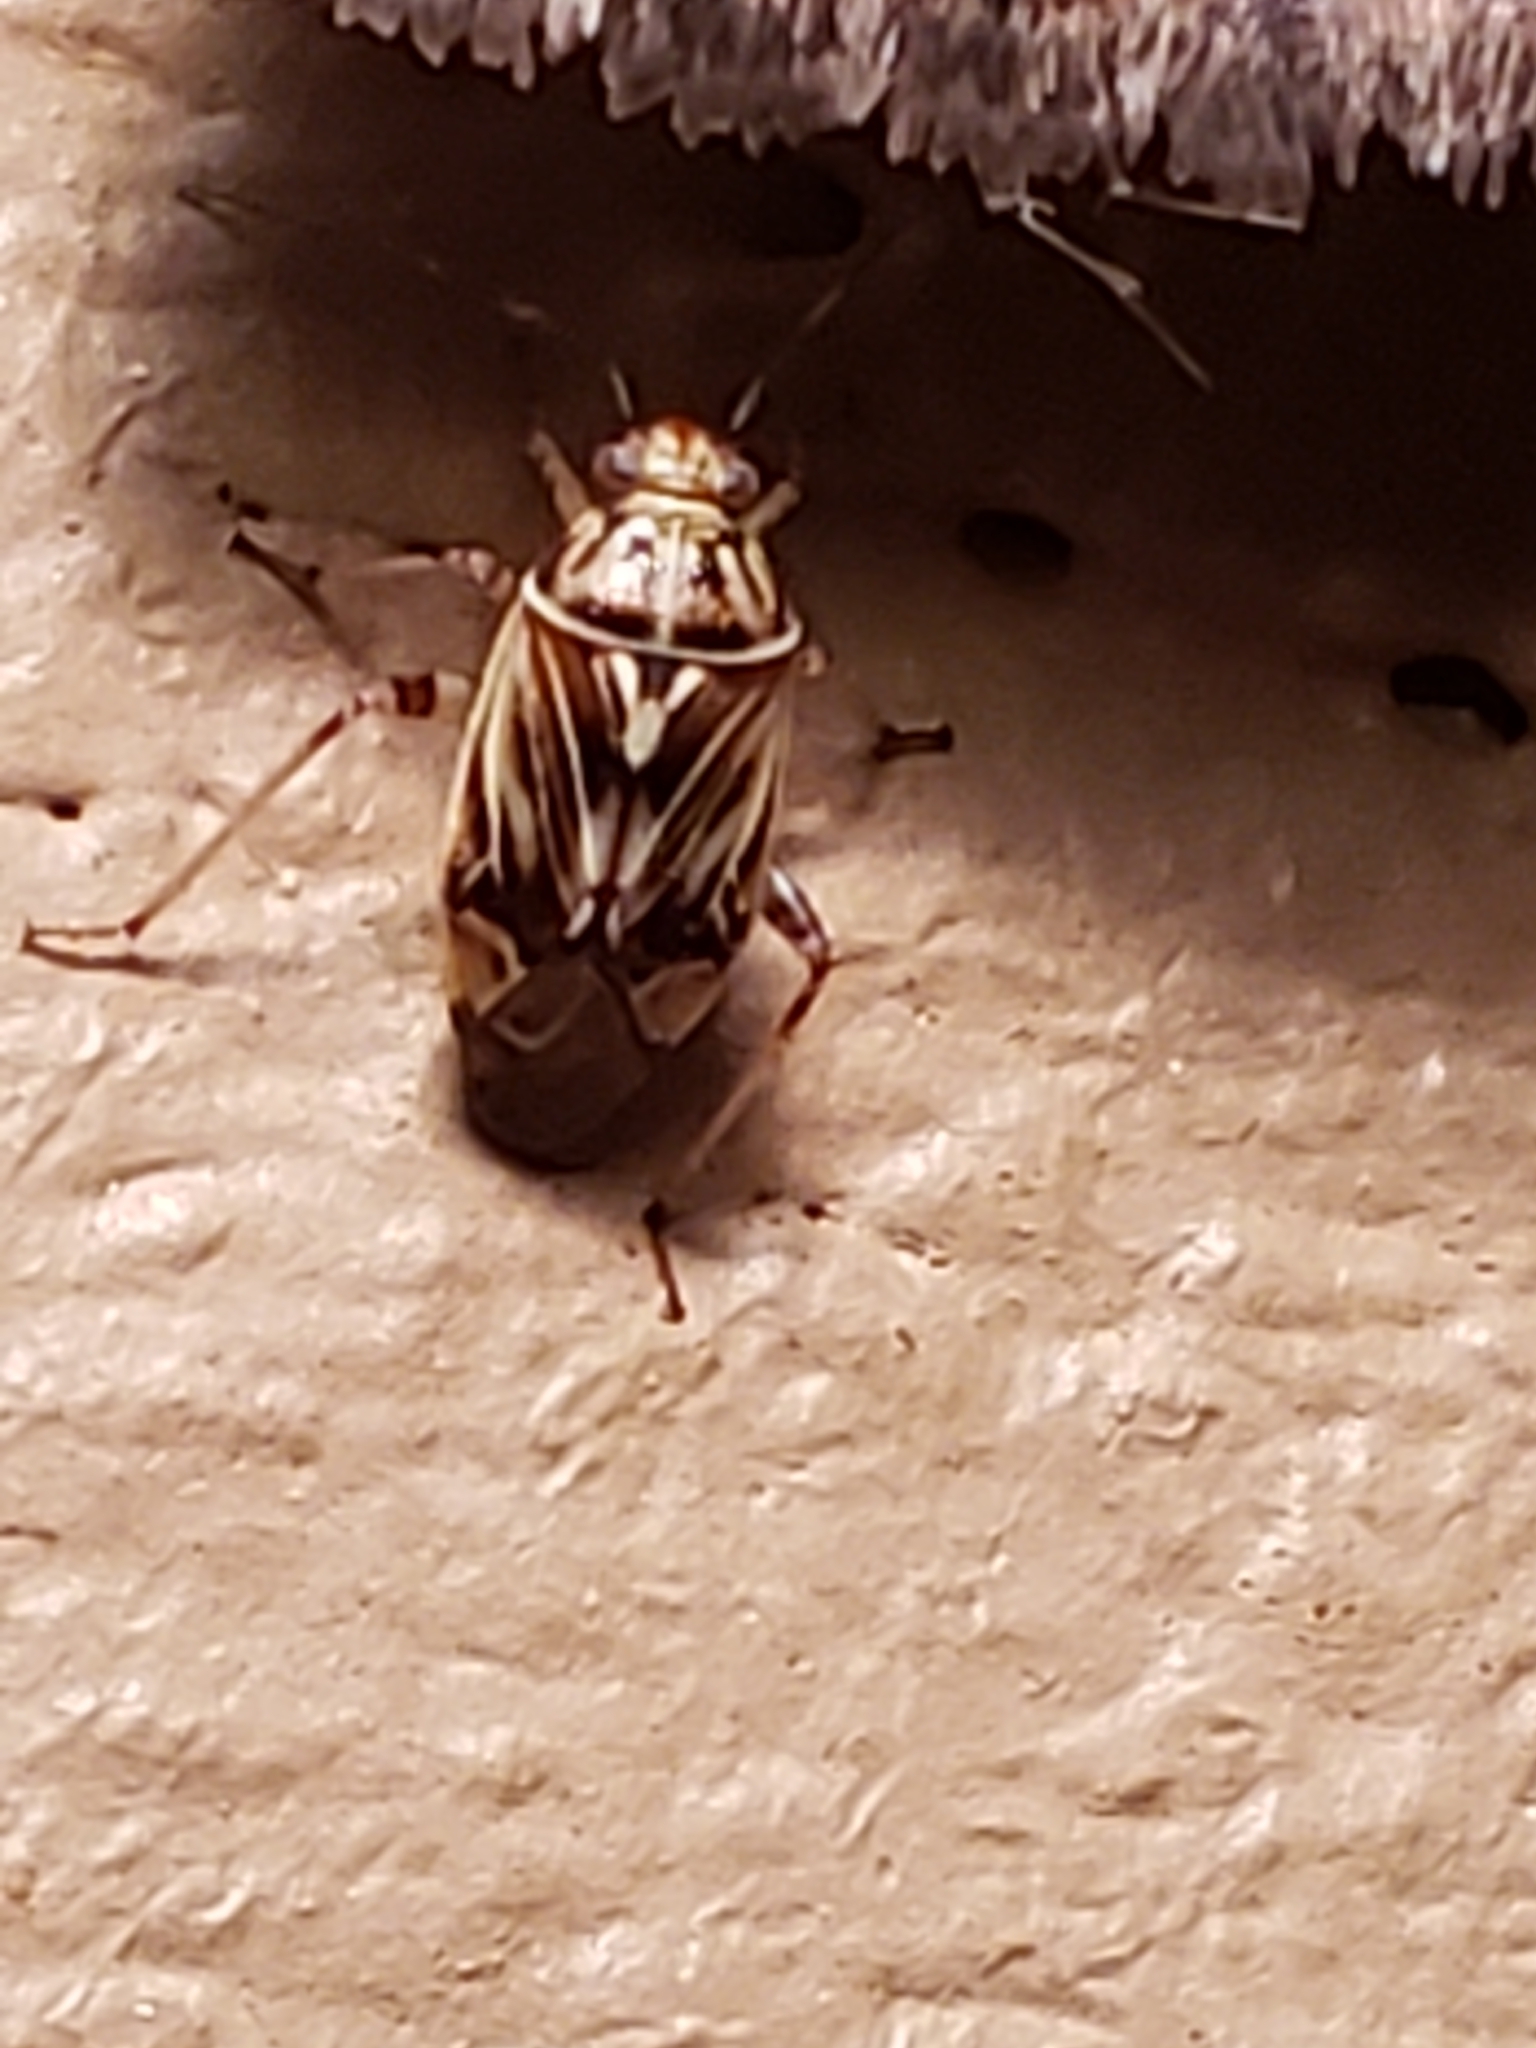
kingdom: Animalia
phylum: Arthropoda
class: Insecta
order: Hemiptera
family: Miridae
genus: Lygus
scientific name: Lygus lineolaris
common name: North american tarnished plant bug
